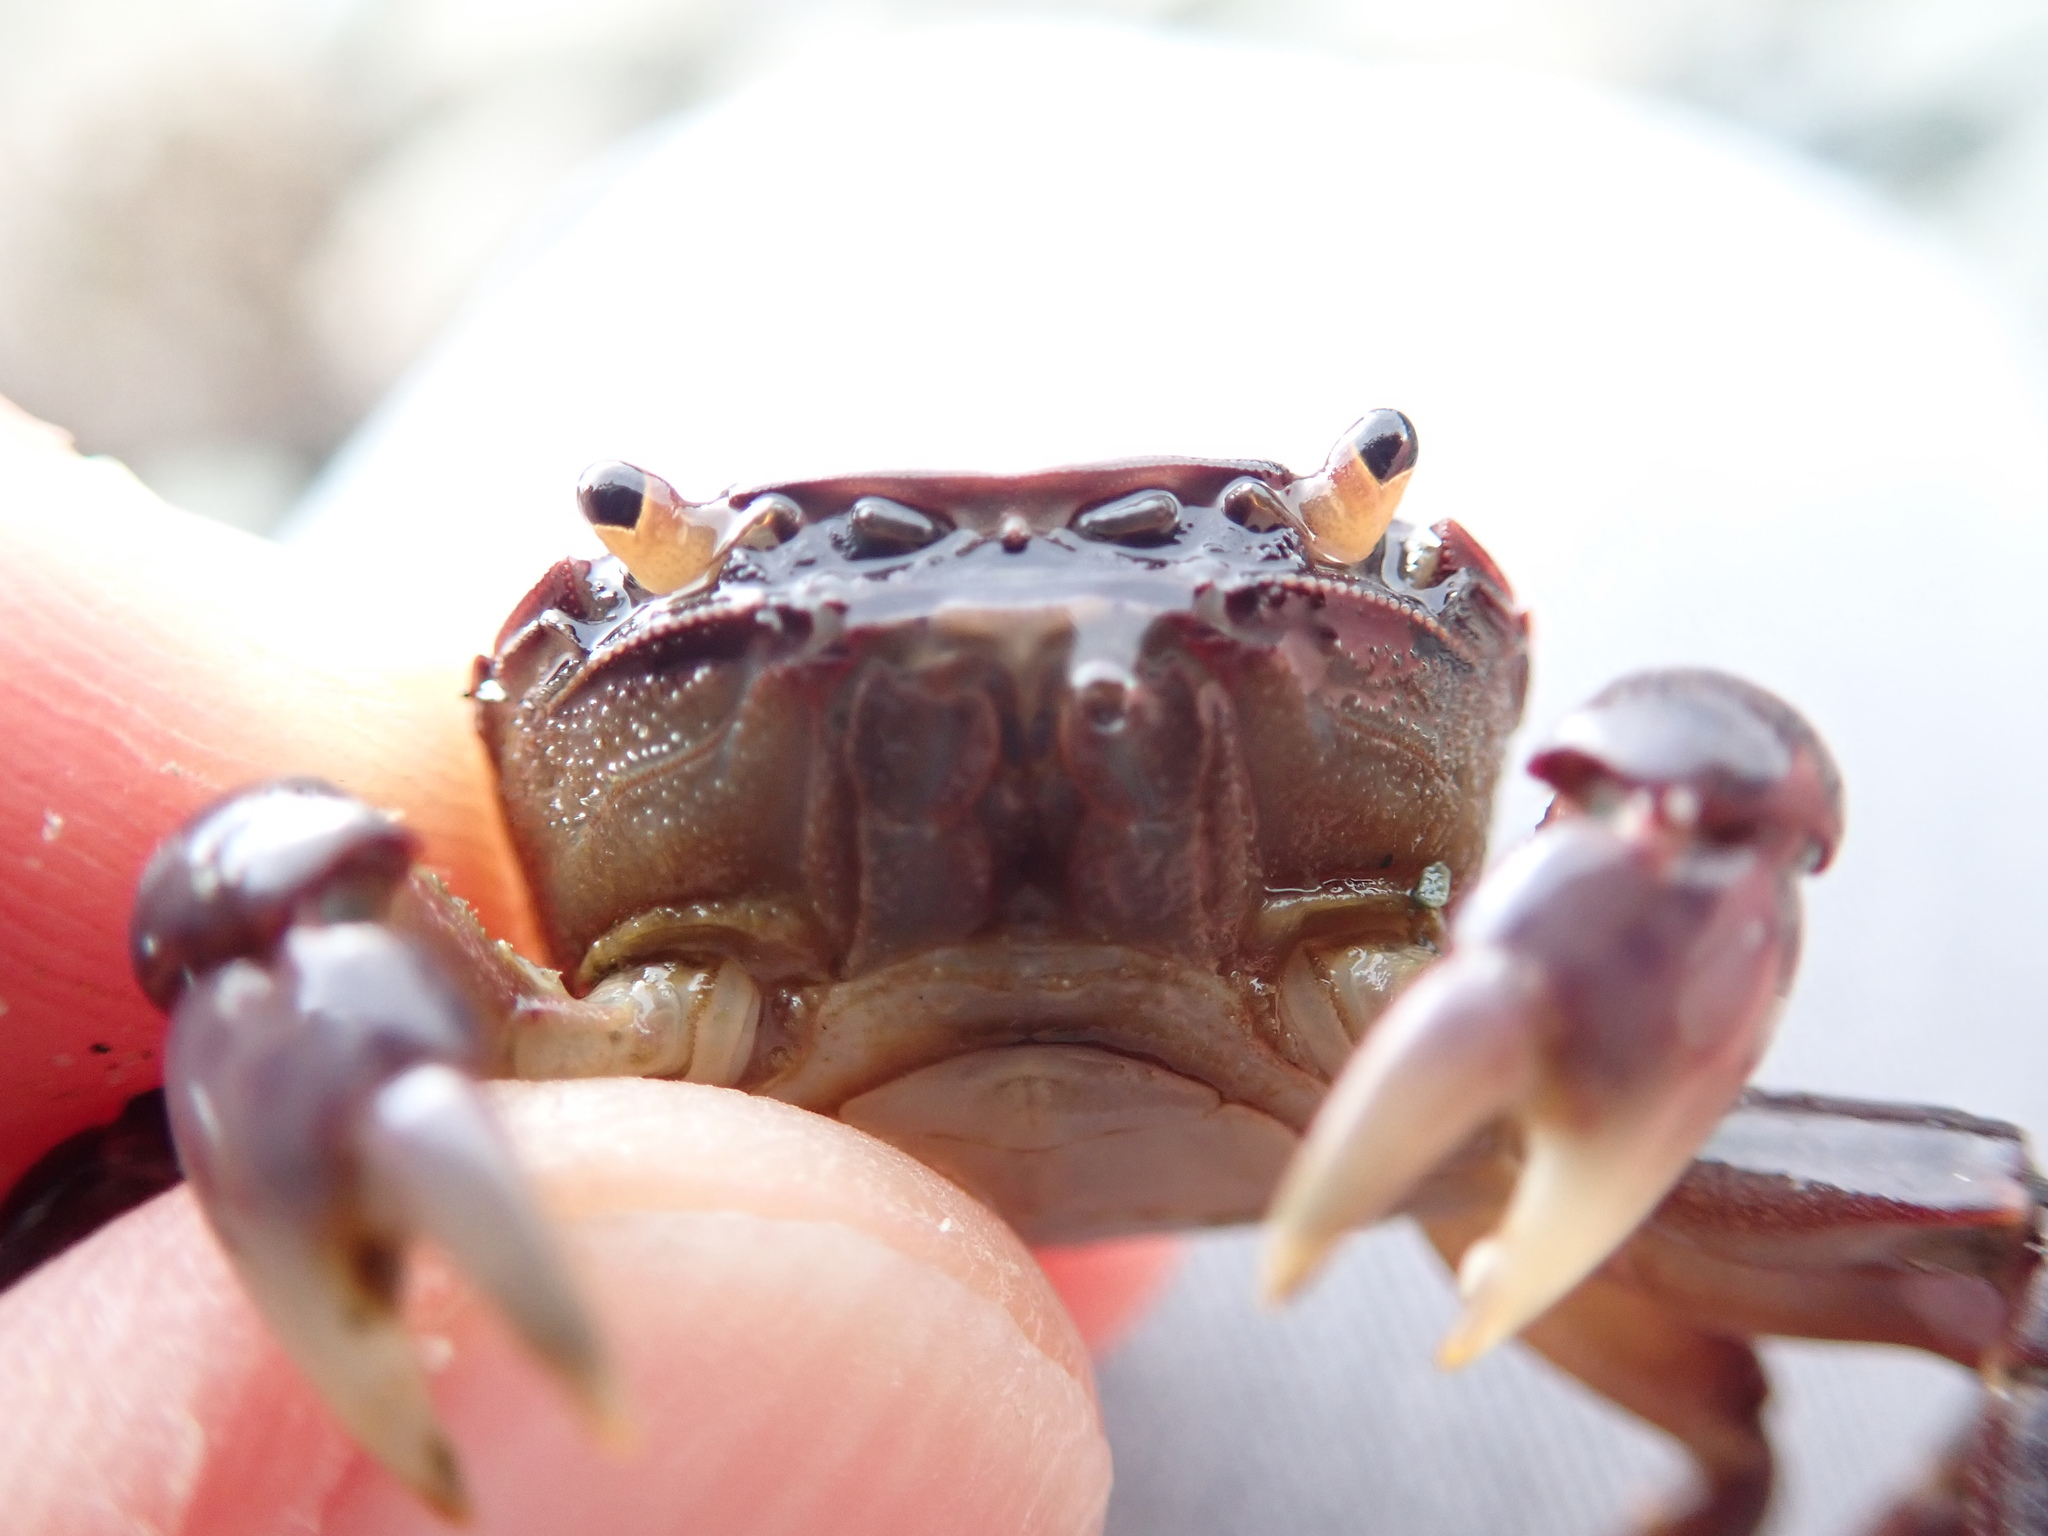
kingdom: Animalia
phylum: Arthropoda
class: Malacostraca
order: Decapoda
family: Varunidae
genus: Hemigrapsus
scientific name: Hemigrapsus nudus
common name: Purple shore crab
